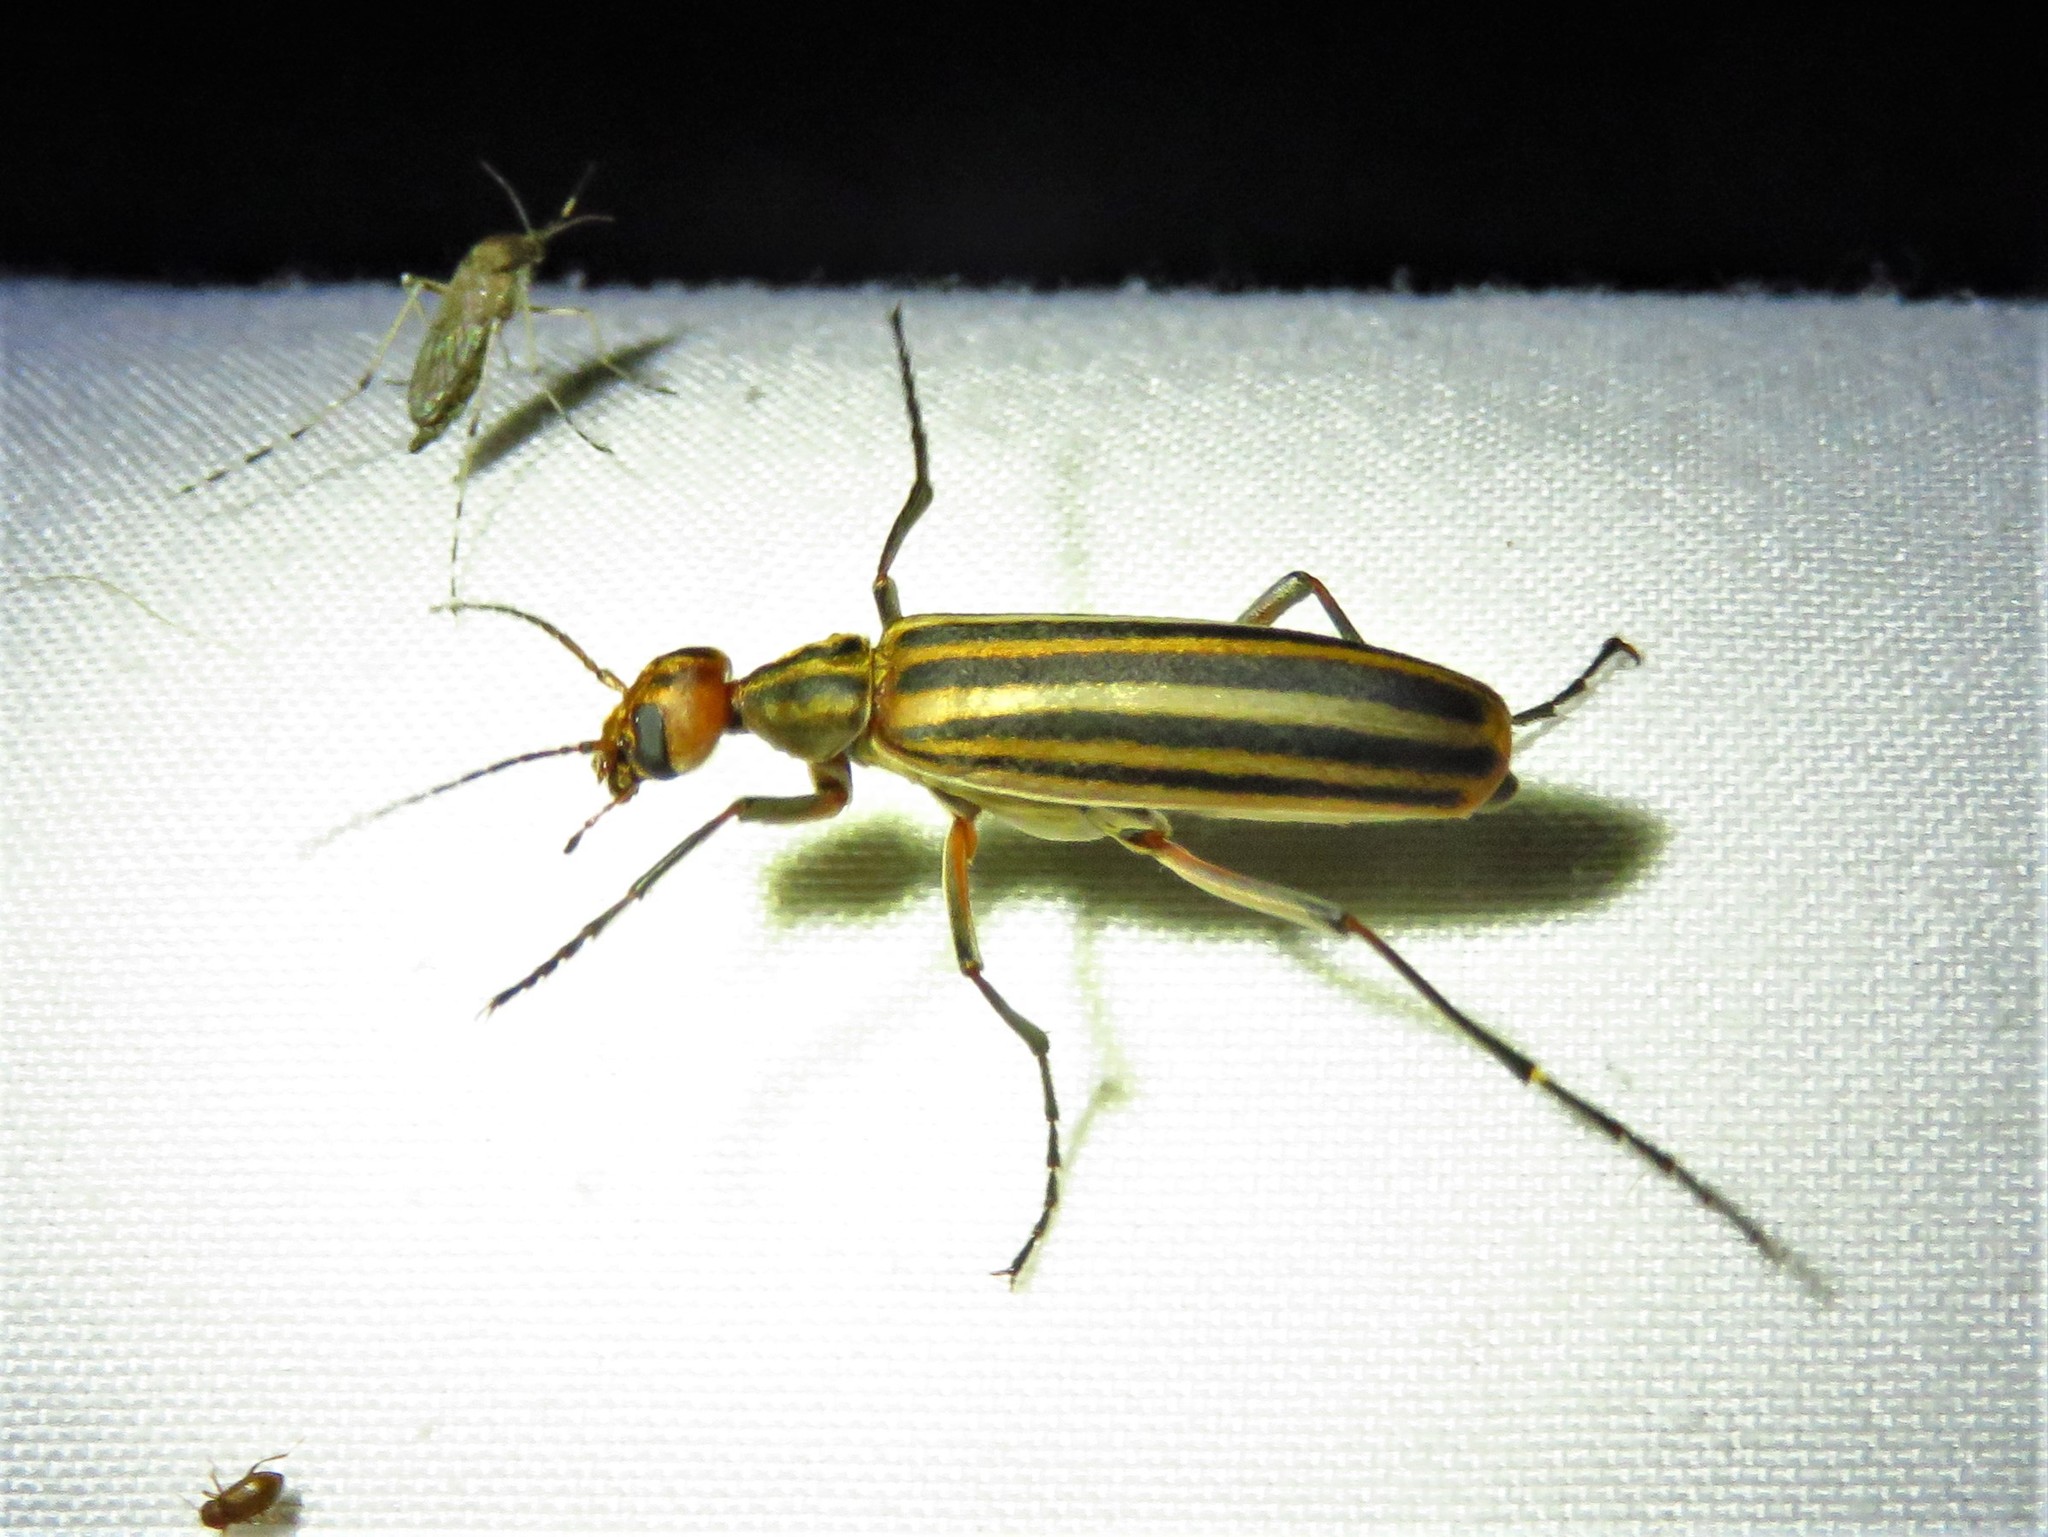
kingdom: Animalia
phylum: Arthropoda
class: Insecta
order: Coleoptera
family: Meloidae
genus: Epicauta
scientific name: Epicauta
